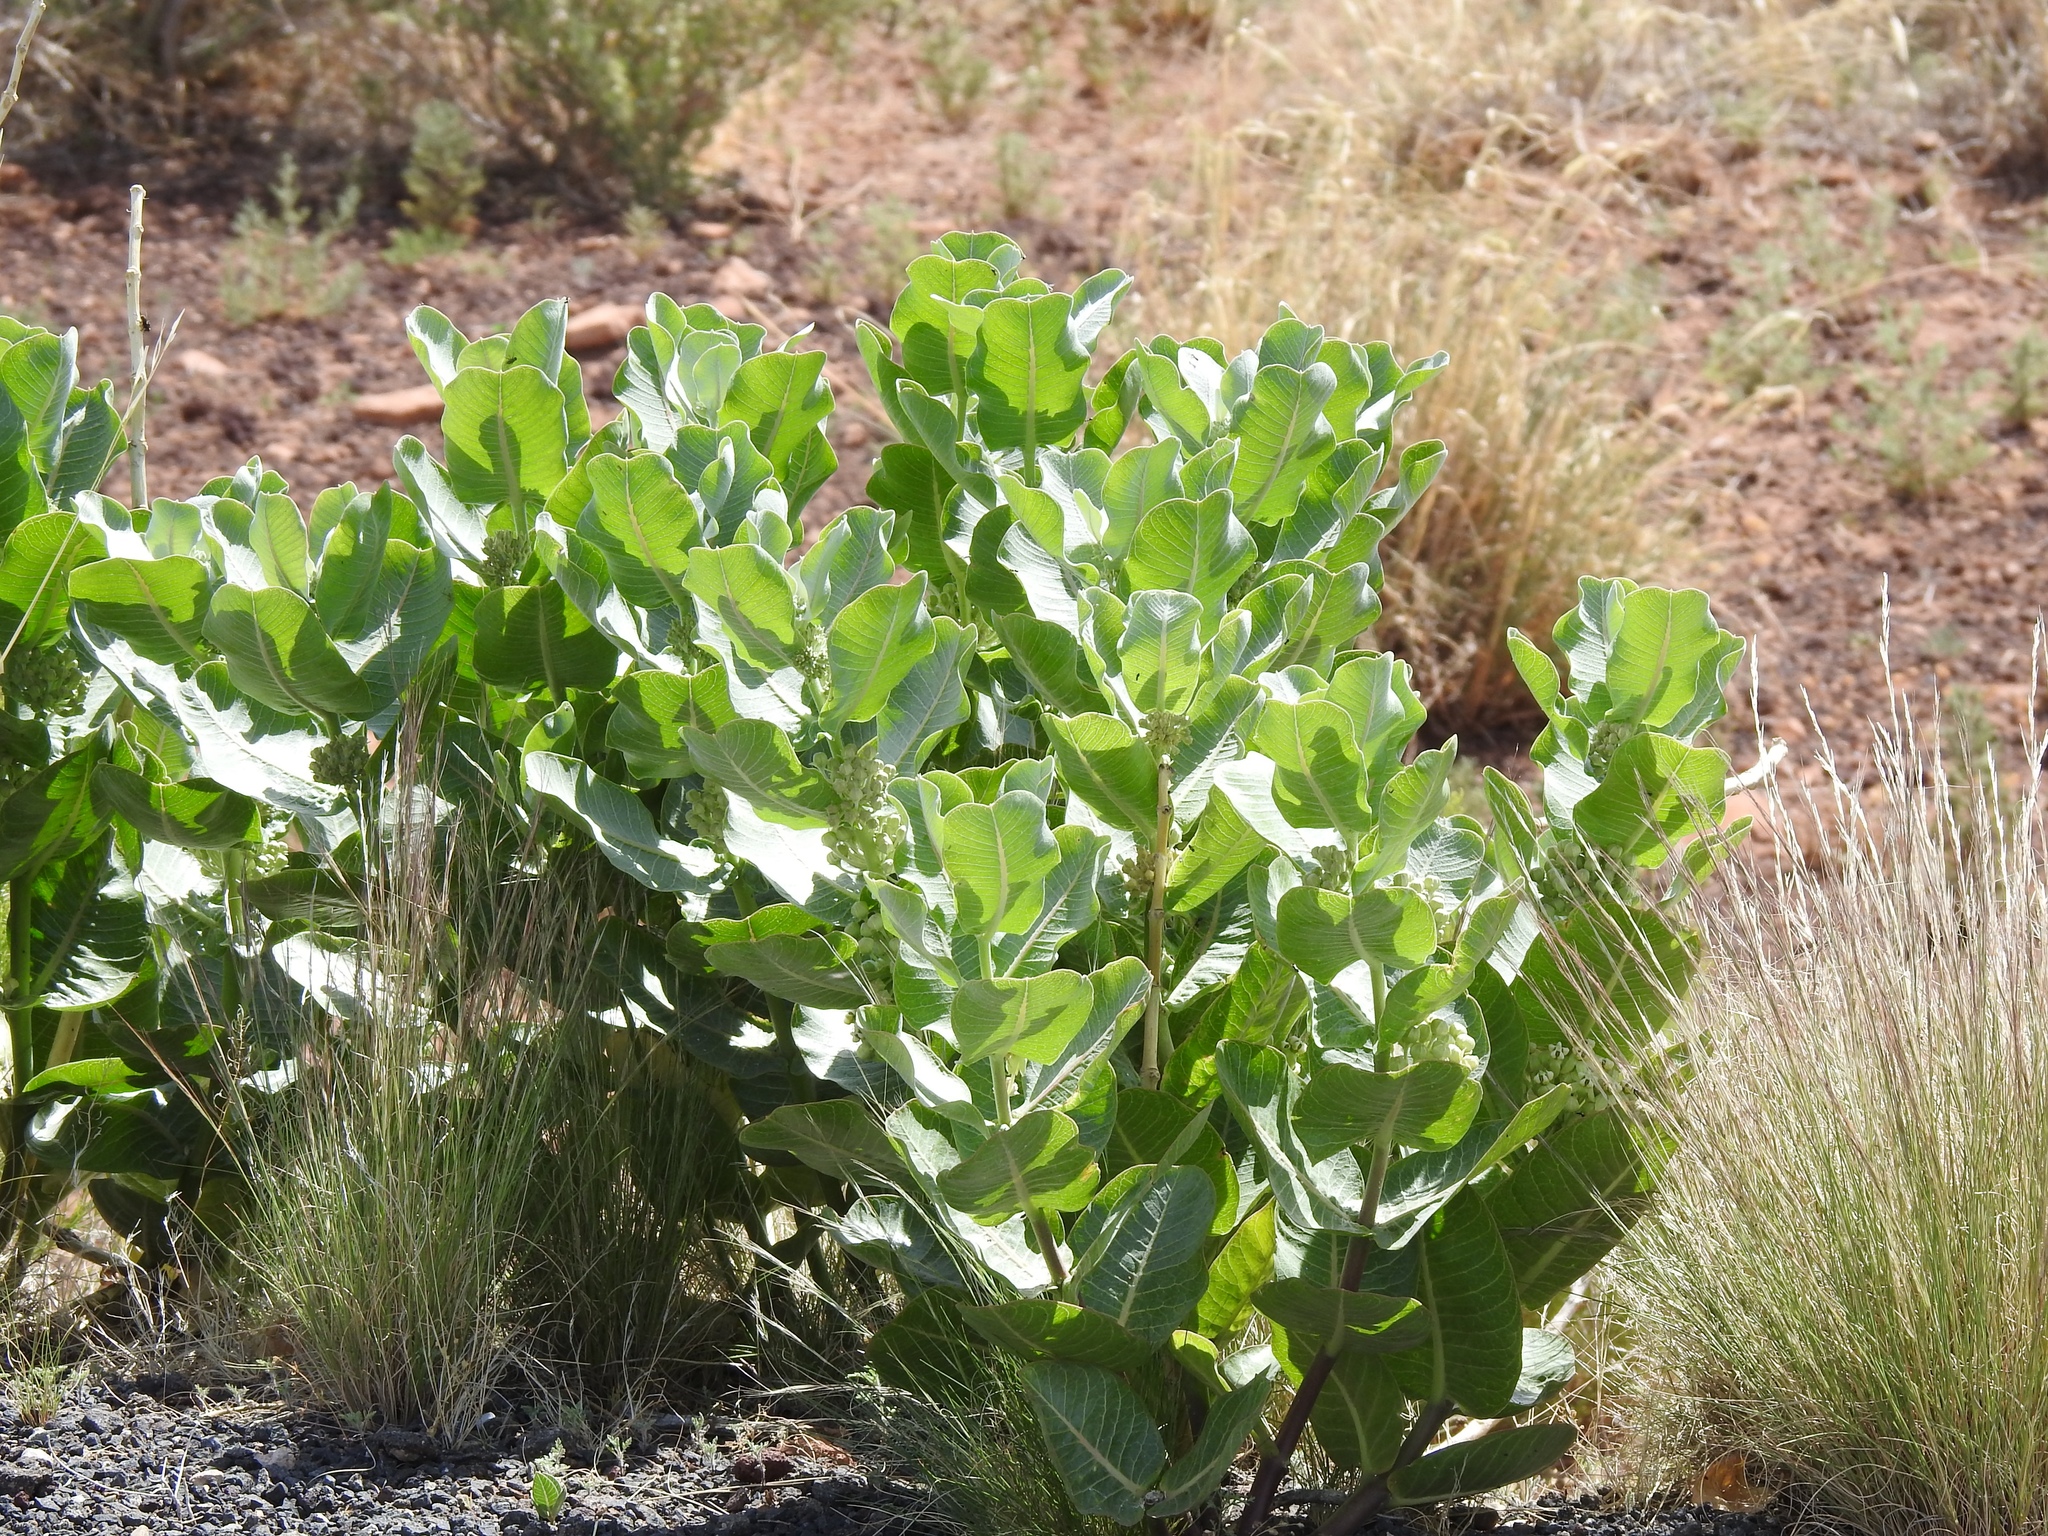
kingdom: Plantae
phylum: Tracheophyta
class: Magnoliopsida
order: Gentianales
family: Apocynaceae
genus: Asclepias
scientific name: Asclepias latifolia
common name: Broadleaf milkweed
